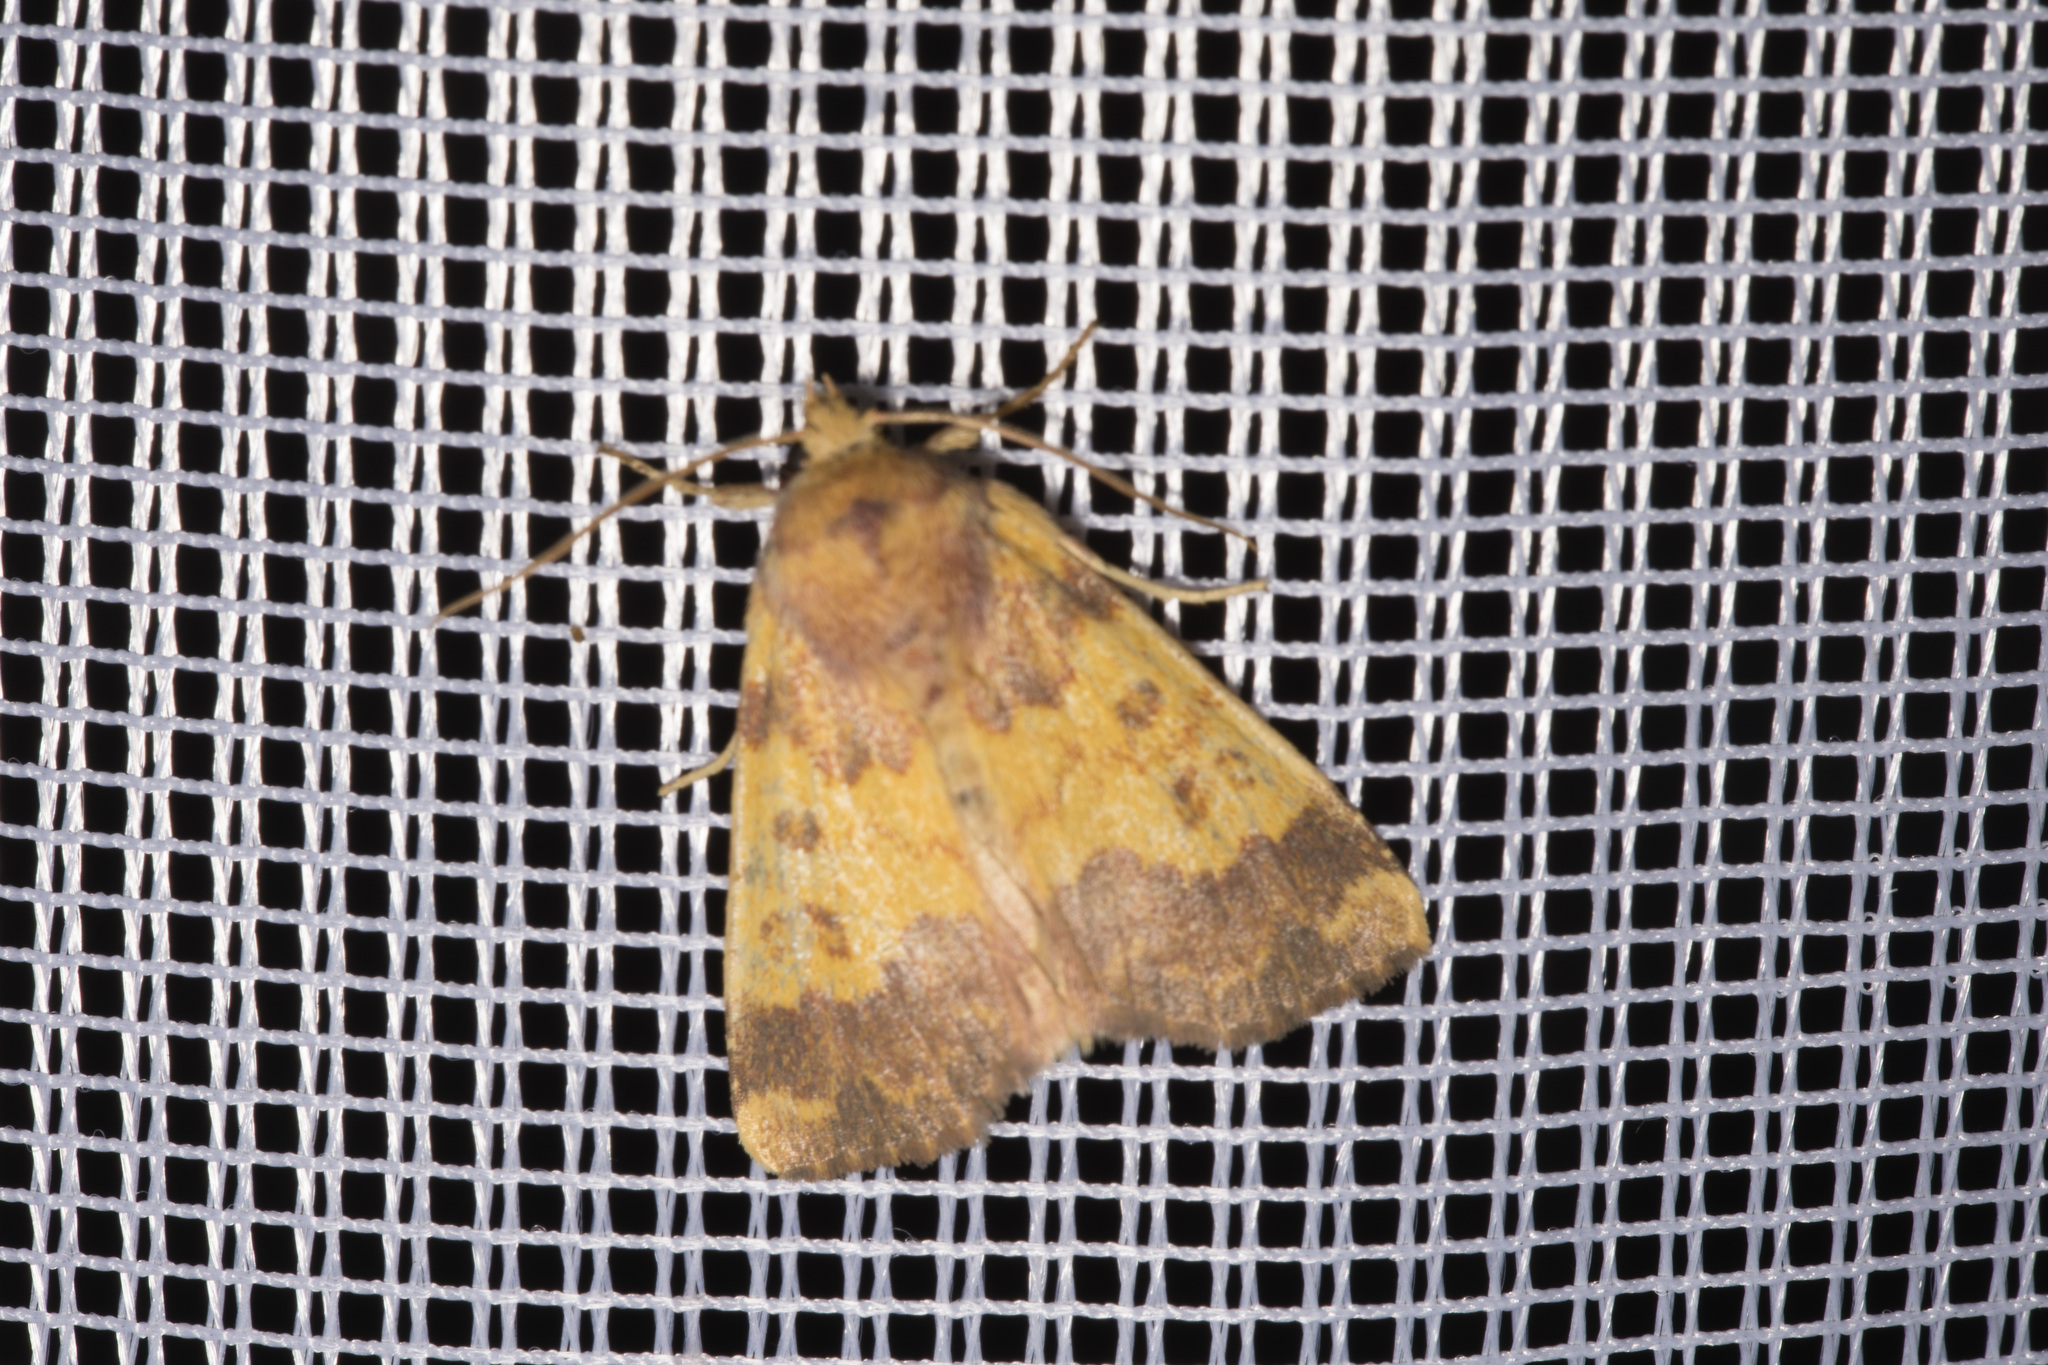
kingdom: Animalia
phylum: Arthropoda
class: Insecta
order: Lepidoptera
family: Noctuidae
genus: Tiliacea
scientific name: Tiliacea aurago
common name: Barred sallow
